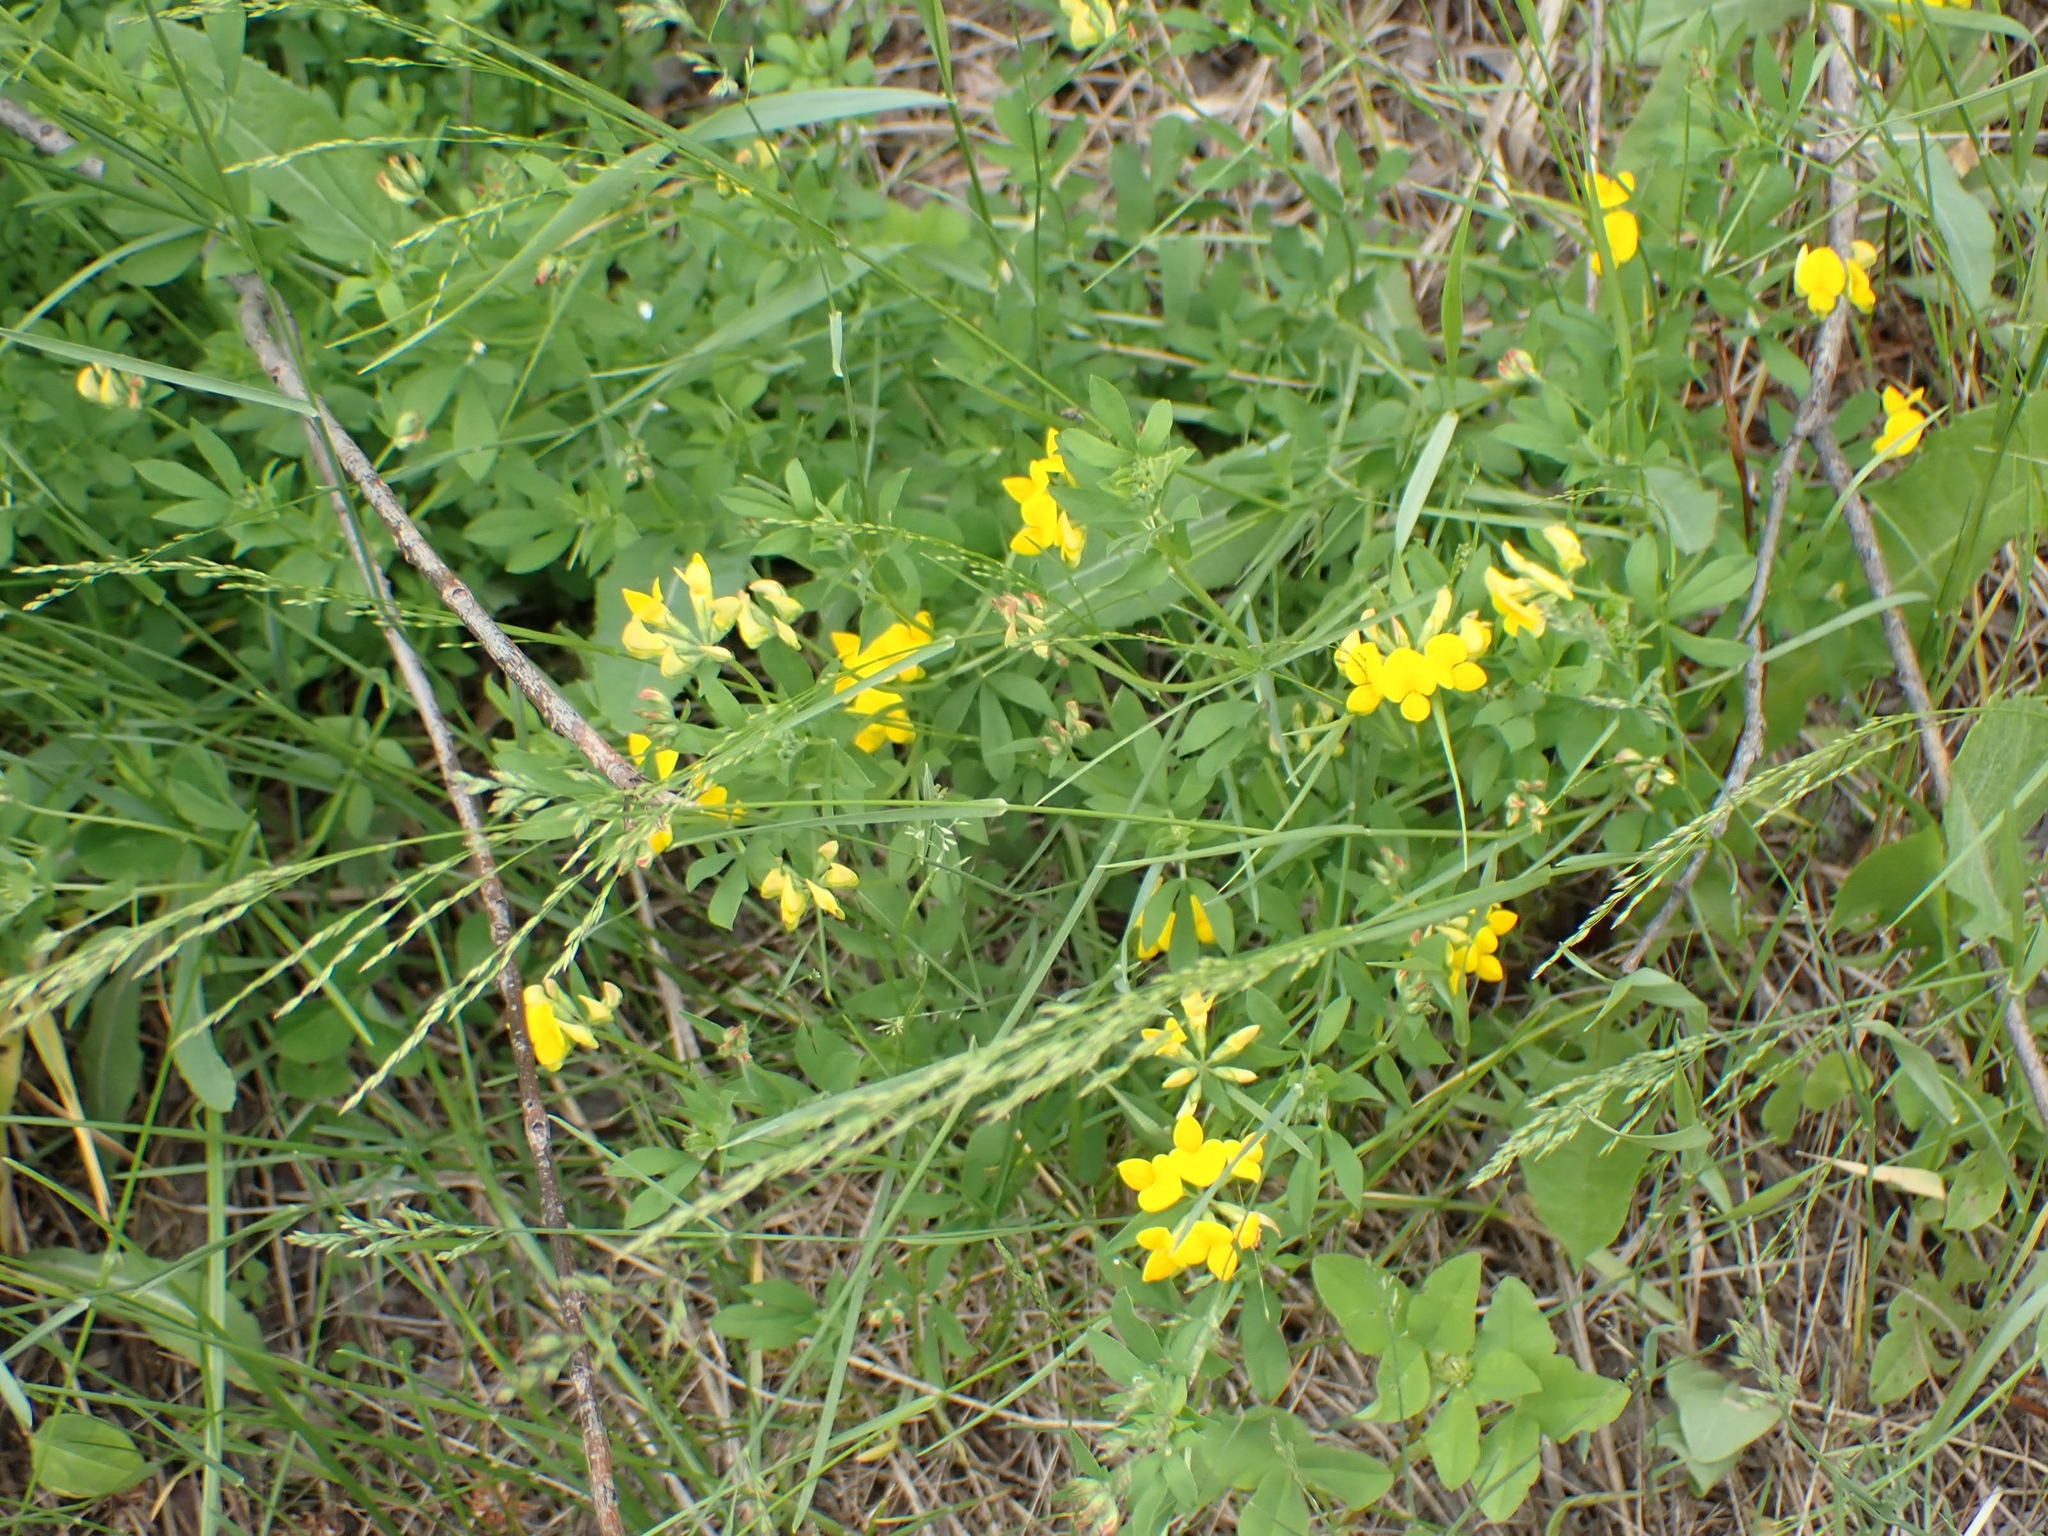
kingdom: Plantae
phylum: Tracheophyta
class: Magnoliopsida
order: Fabales
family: Fabaceae
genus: Lotus
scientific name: Lotus corniculatus
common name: Common bird's-foot-trefoil
